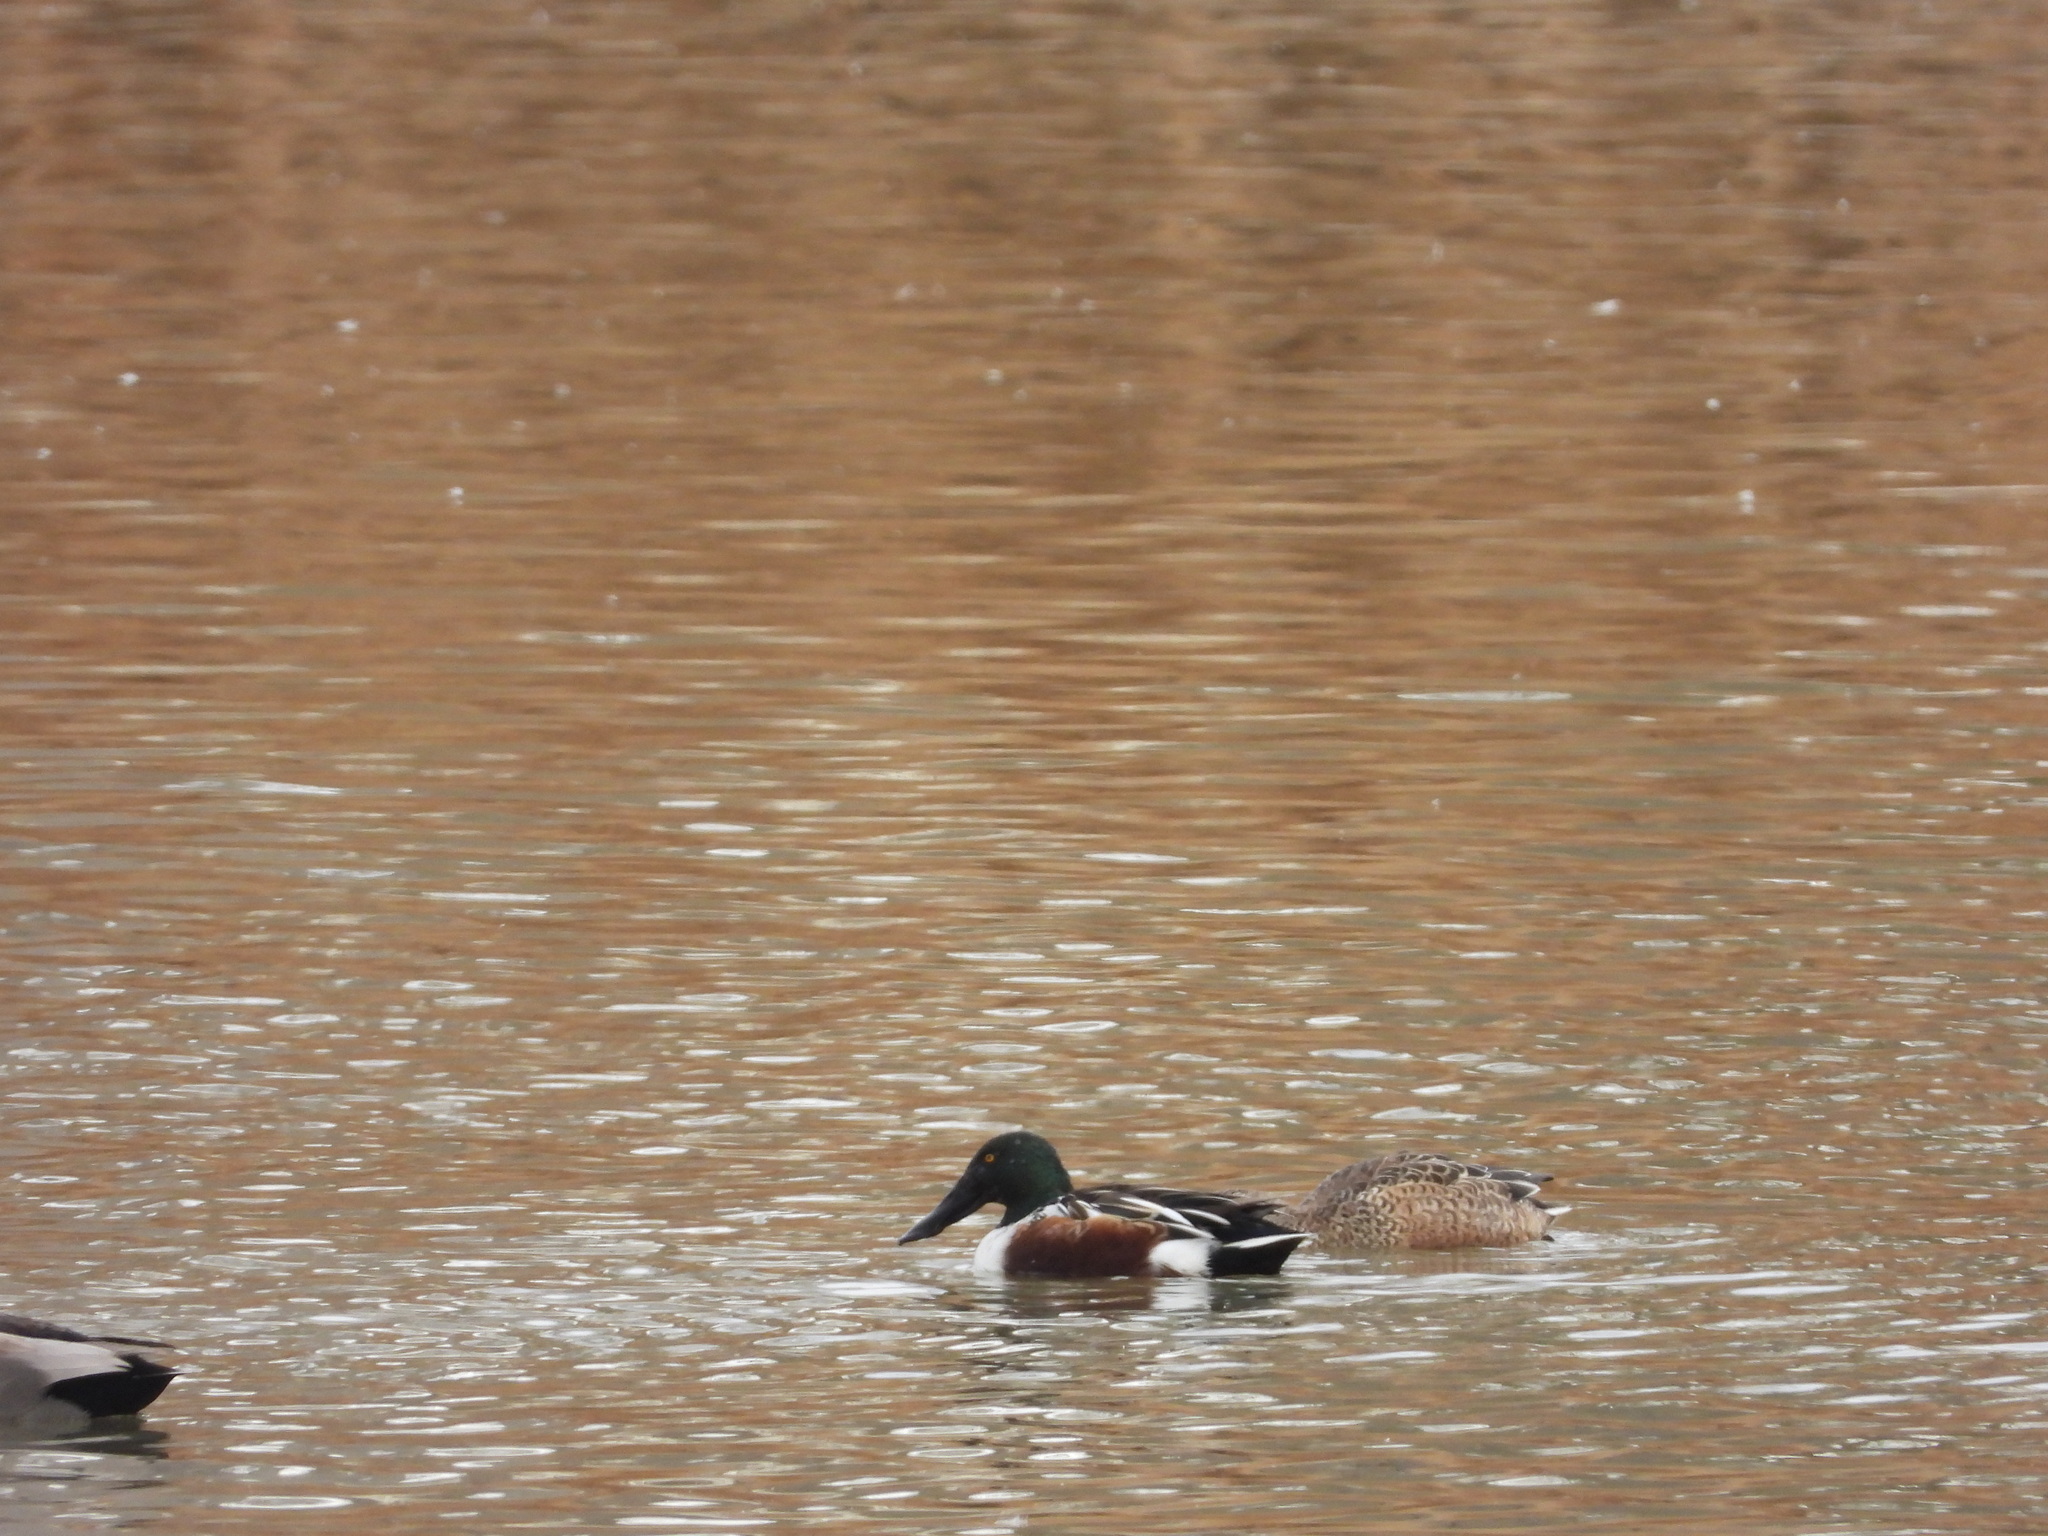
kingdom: Animalia
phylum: Chordata
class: Aves
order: Anseriformes
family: Anatidae
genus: Spatula
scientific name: Spatula clypeata
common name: Northern shoveler
